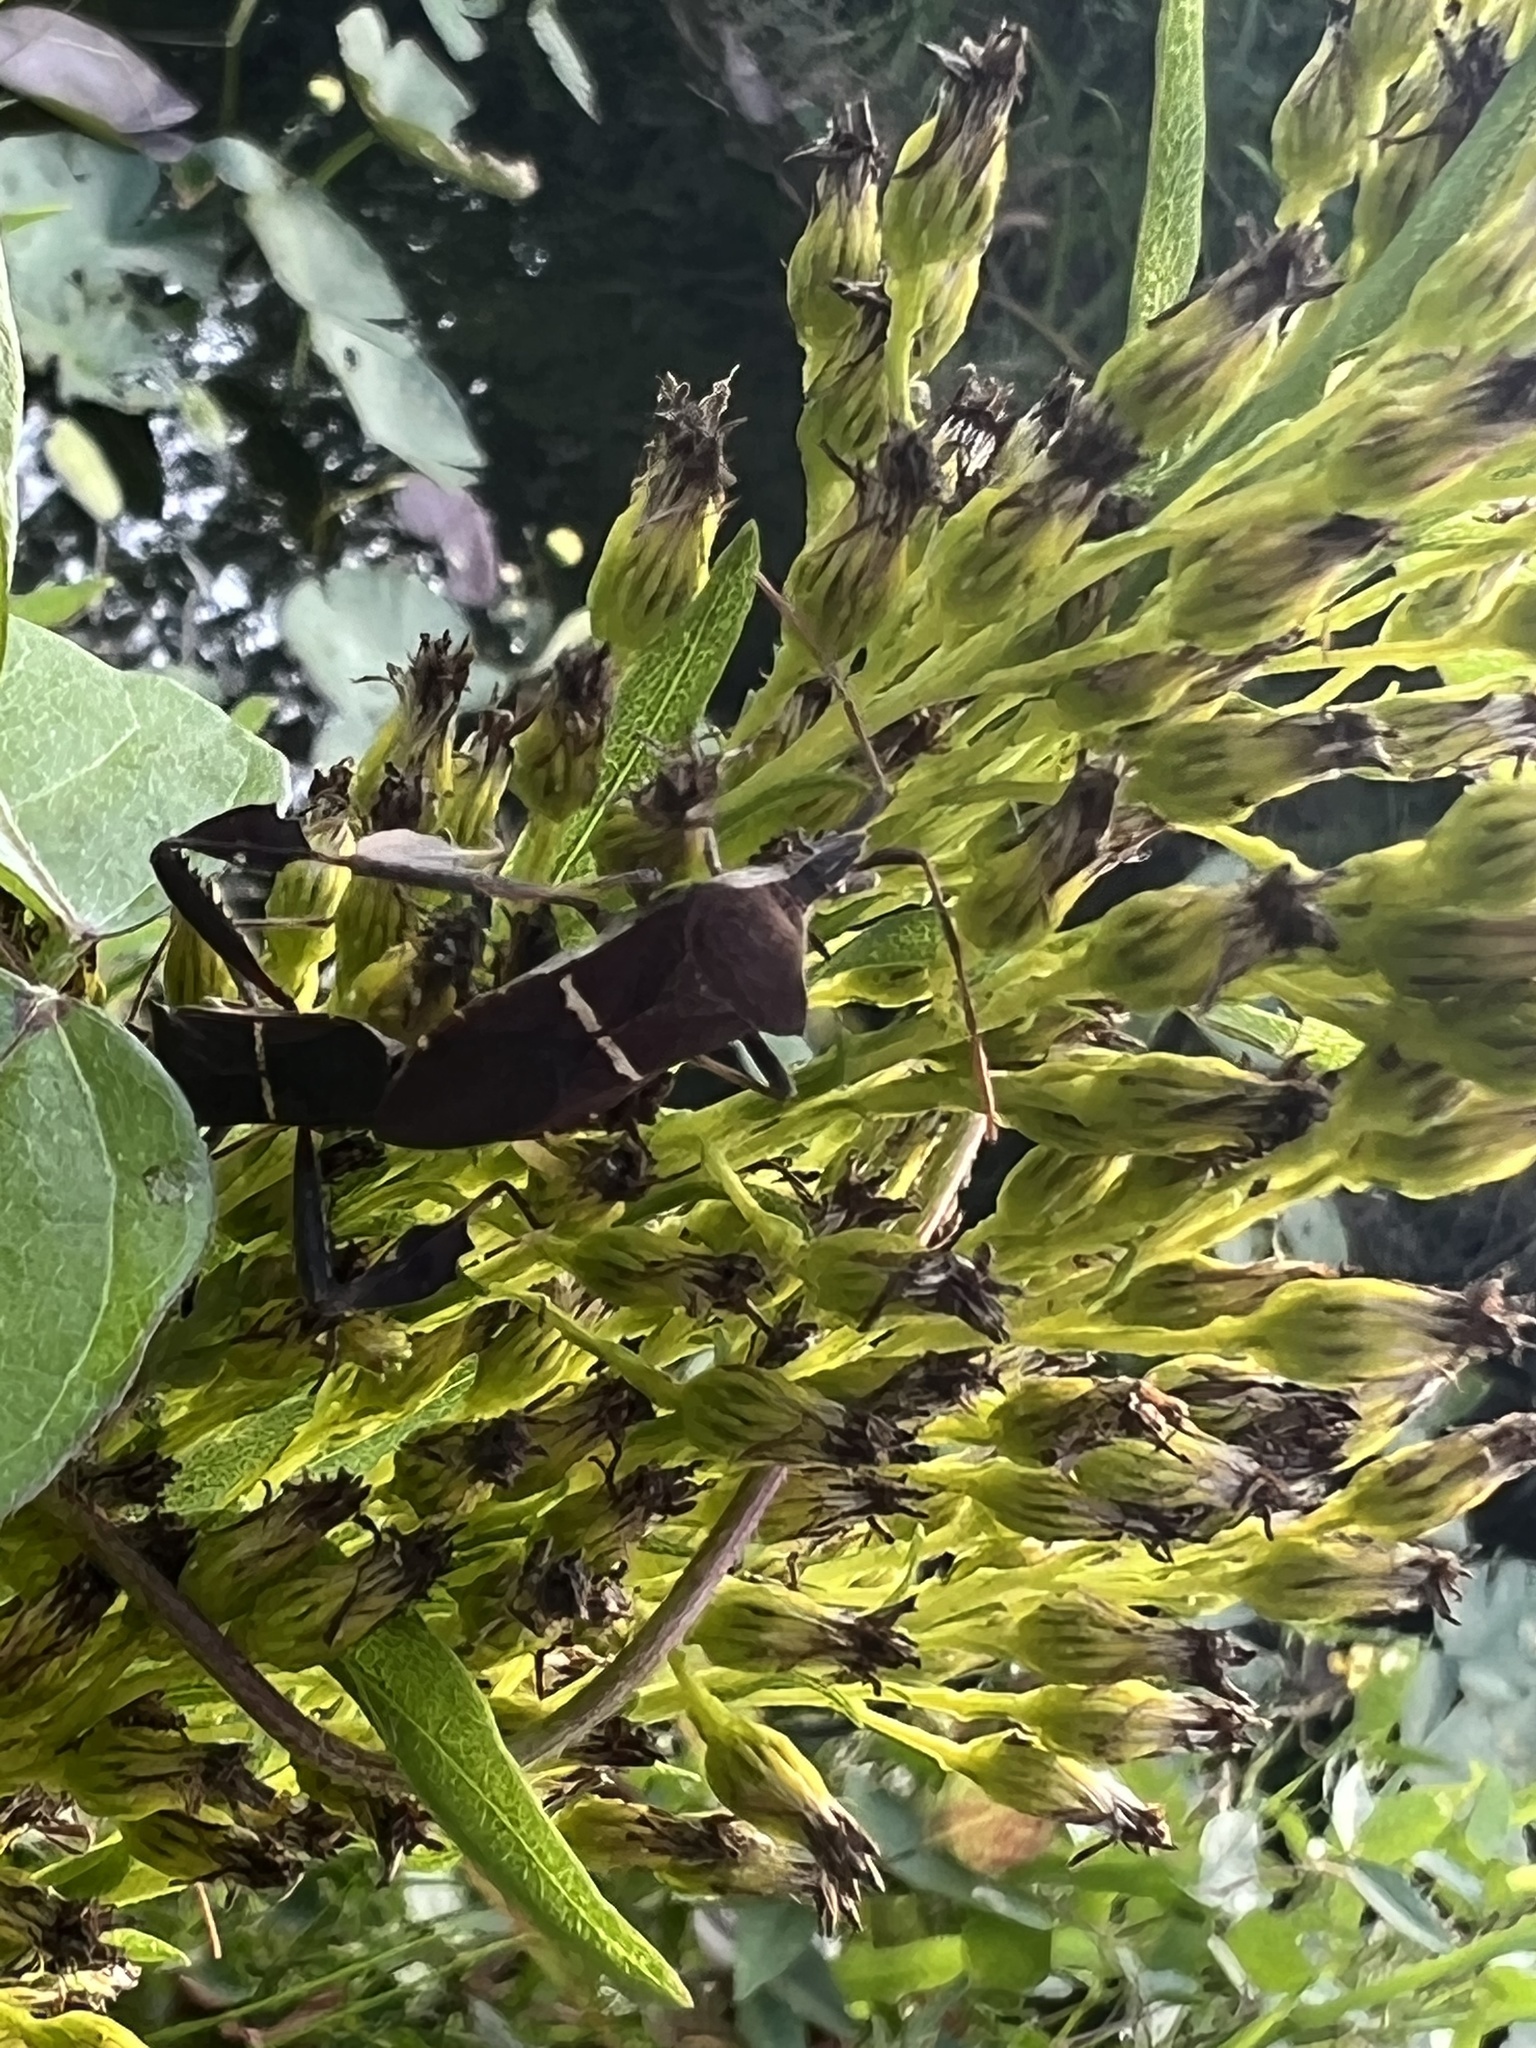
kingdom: Animalia
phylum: Arthropoda
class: Insecta
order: Hemiptera
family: Coreidae
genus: Leptoglossus
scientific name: Leptoglossus phyllopus
